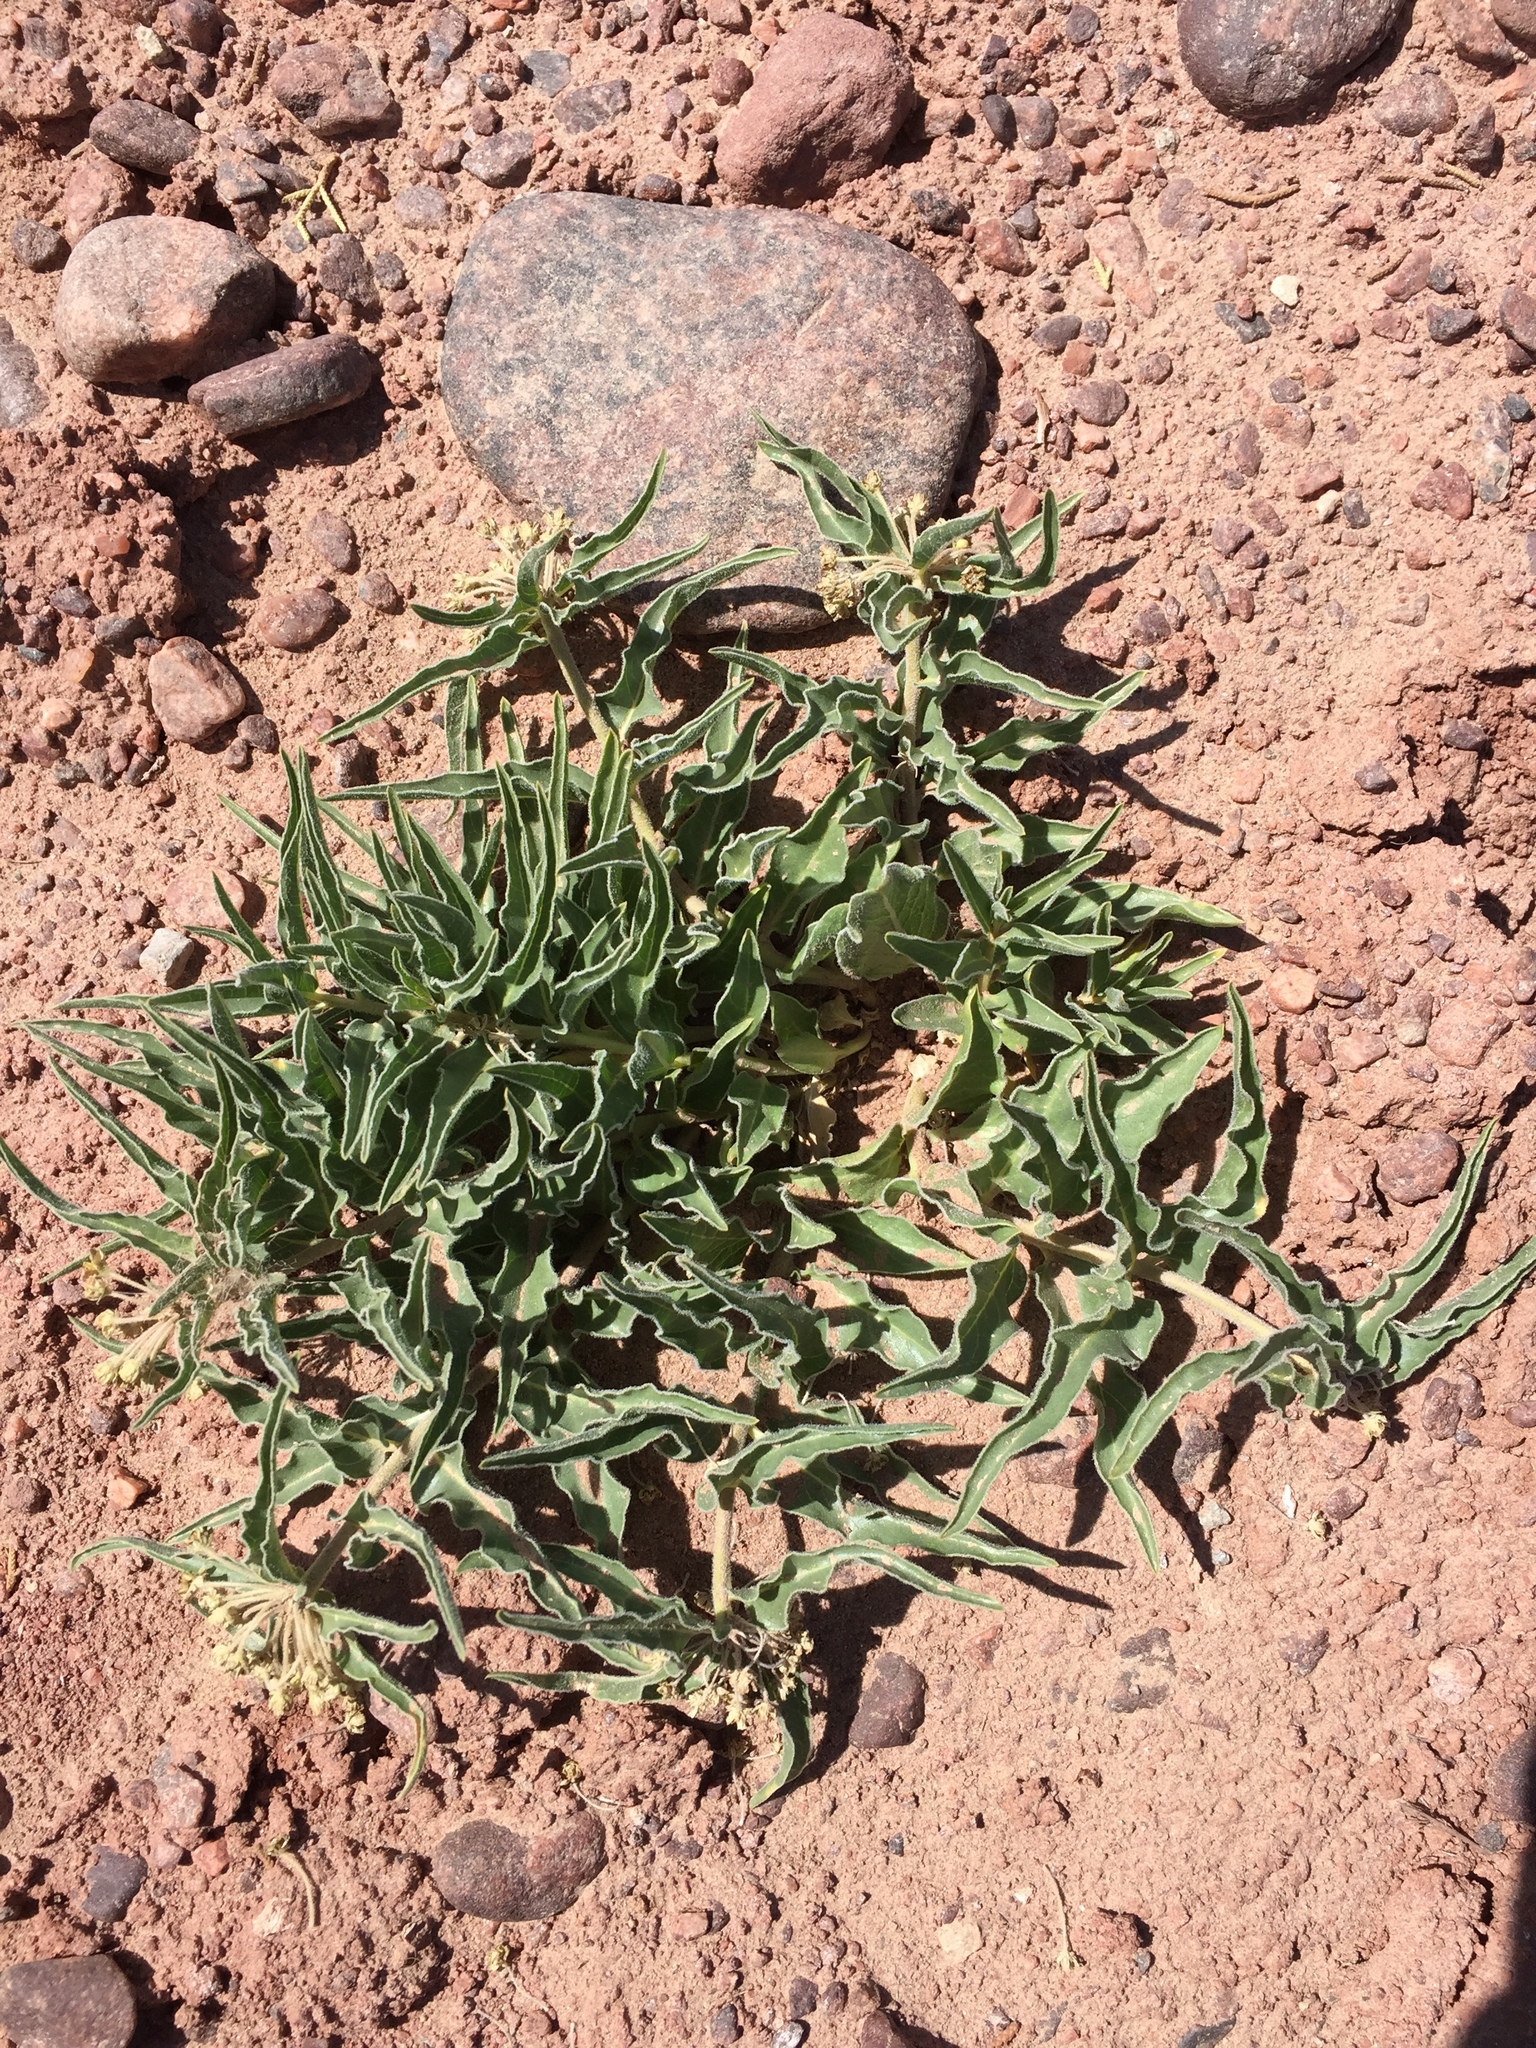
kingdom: Plantae
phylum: Tracheophyta
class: Magnoliopsida
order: Gentianales
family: Apocynaceae
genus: Asclepias
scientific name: Asclepias involucrata
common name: Dwarf milkweed
